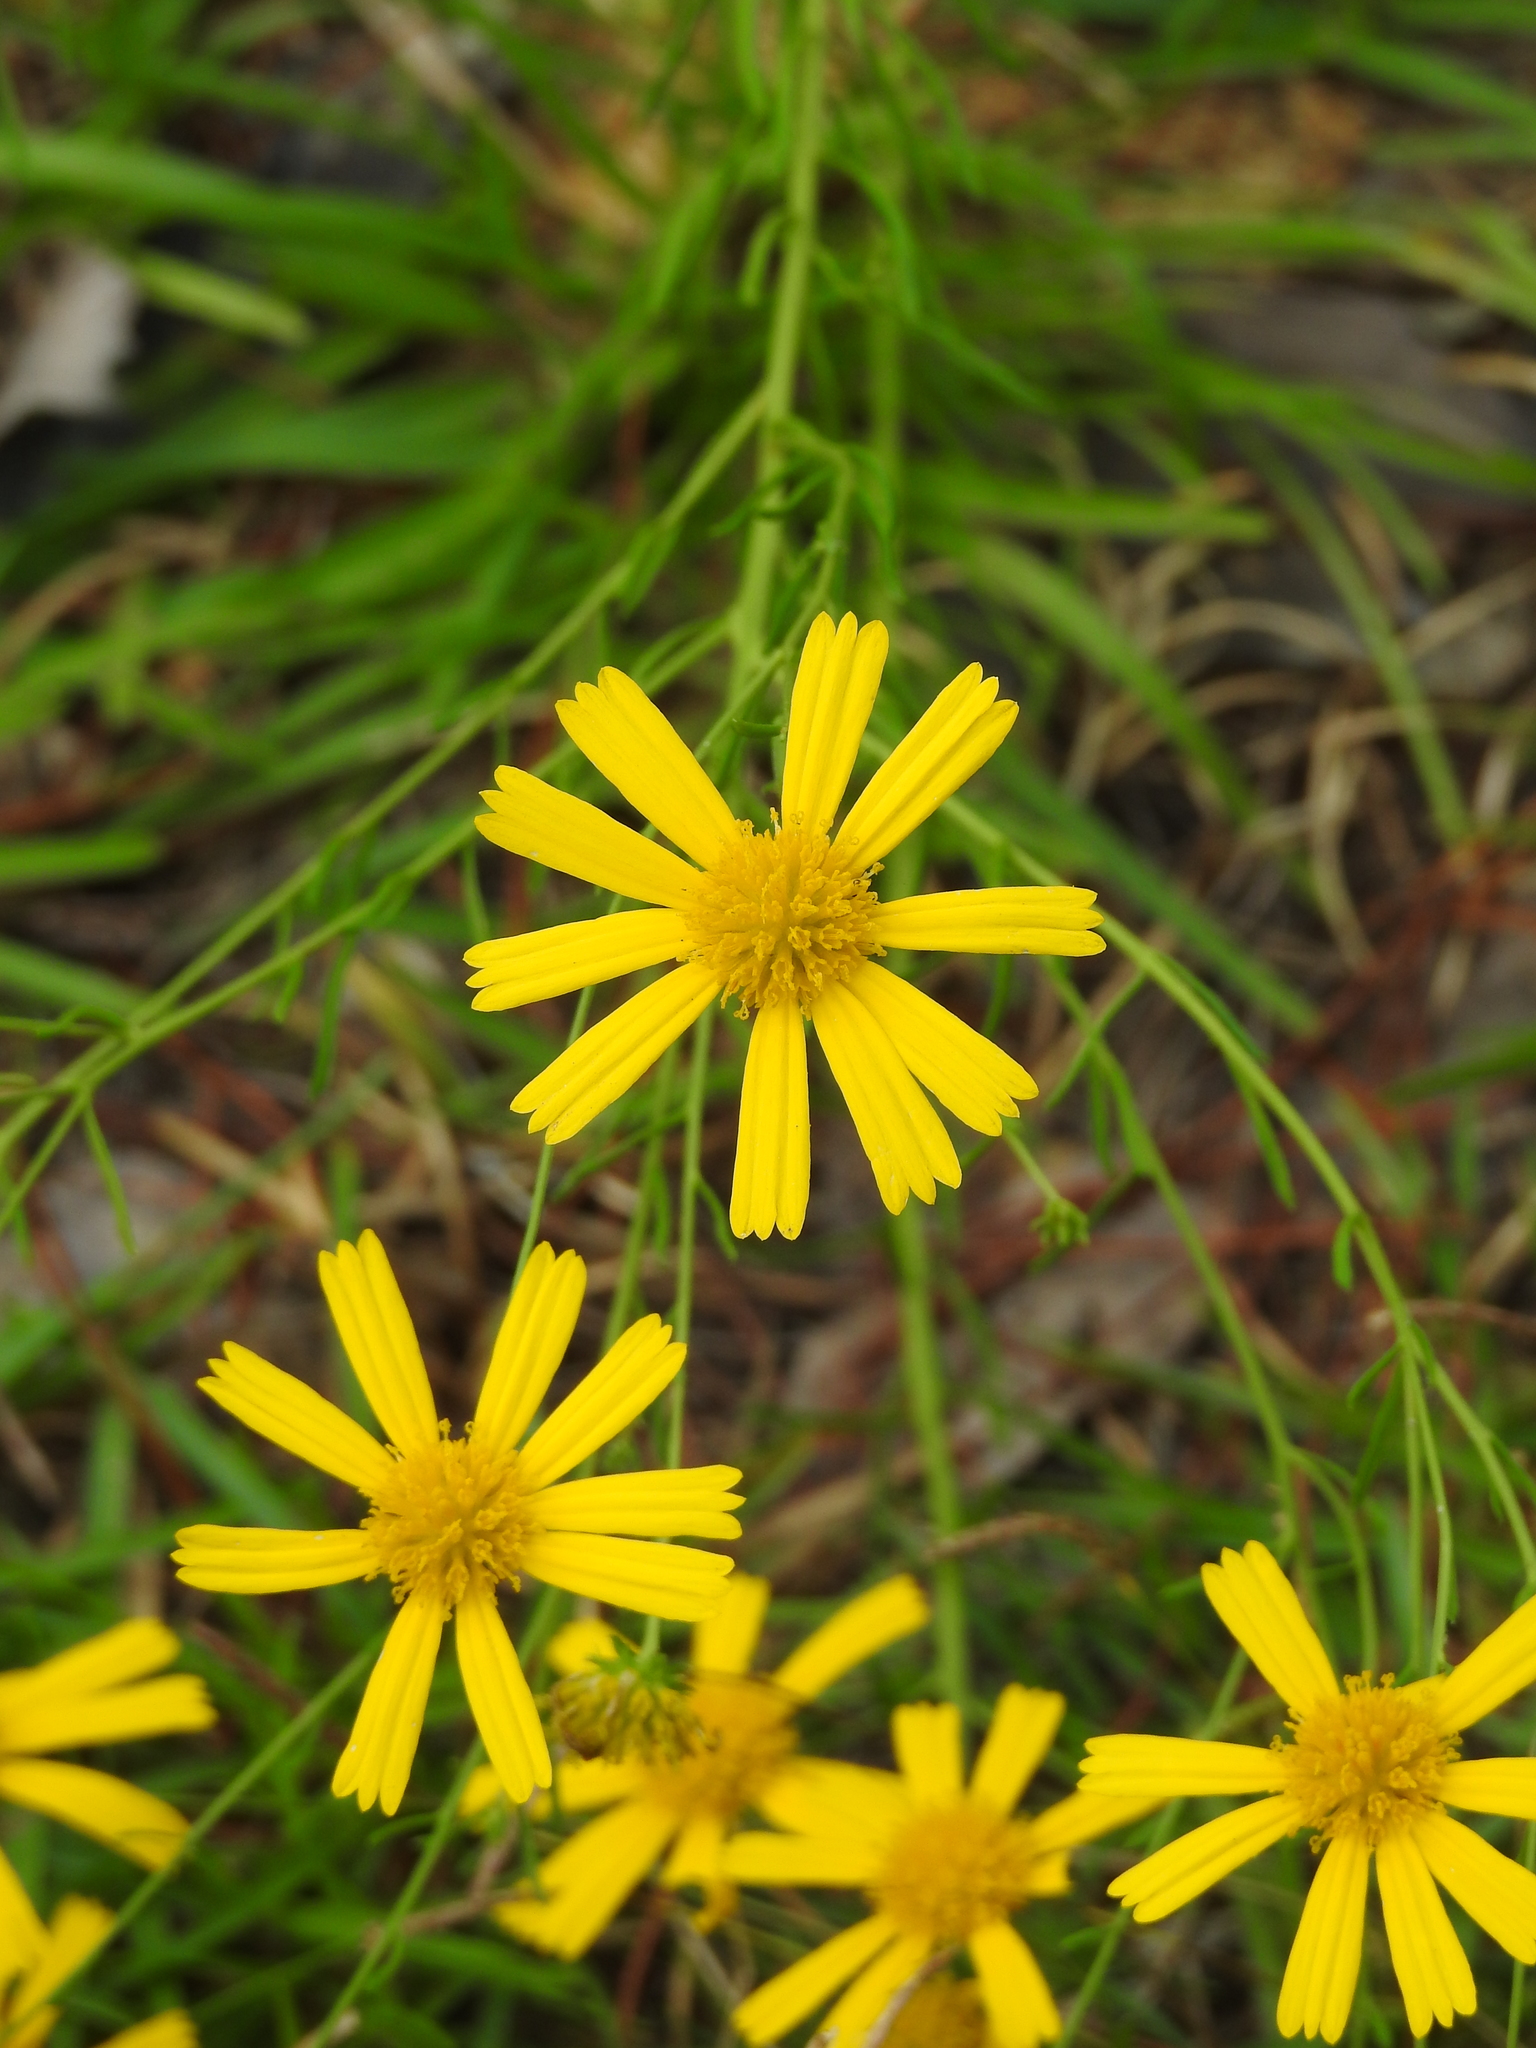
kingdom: Plantae
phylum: Tracheophyta
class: Magnoliopsida
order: Asterales
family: Asteraceae
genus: Balduina
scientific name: Balduina angustifolia
